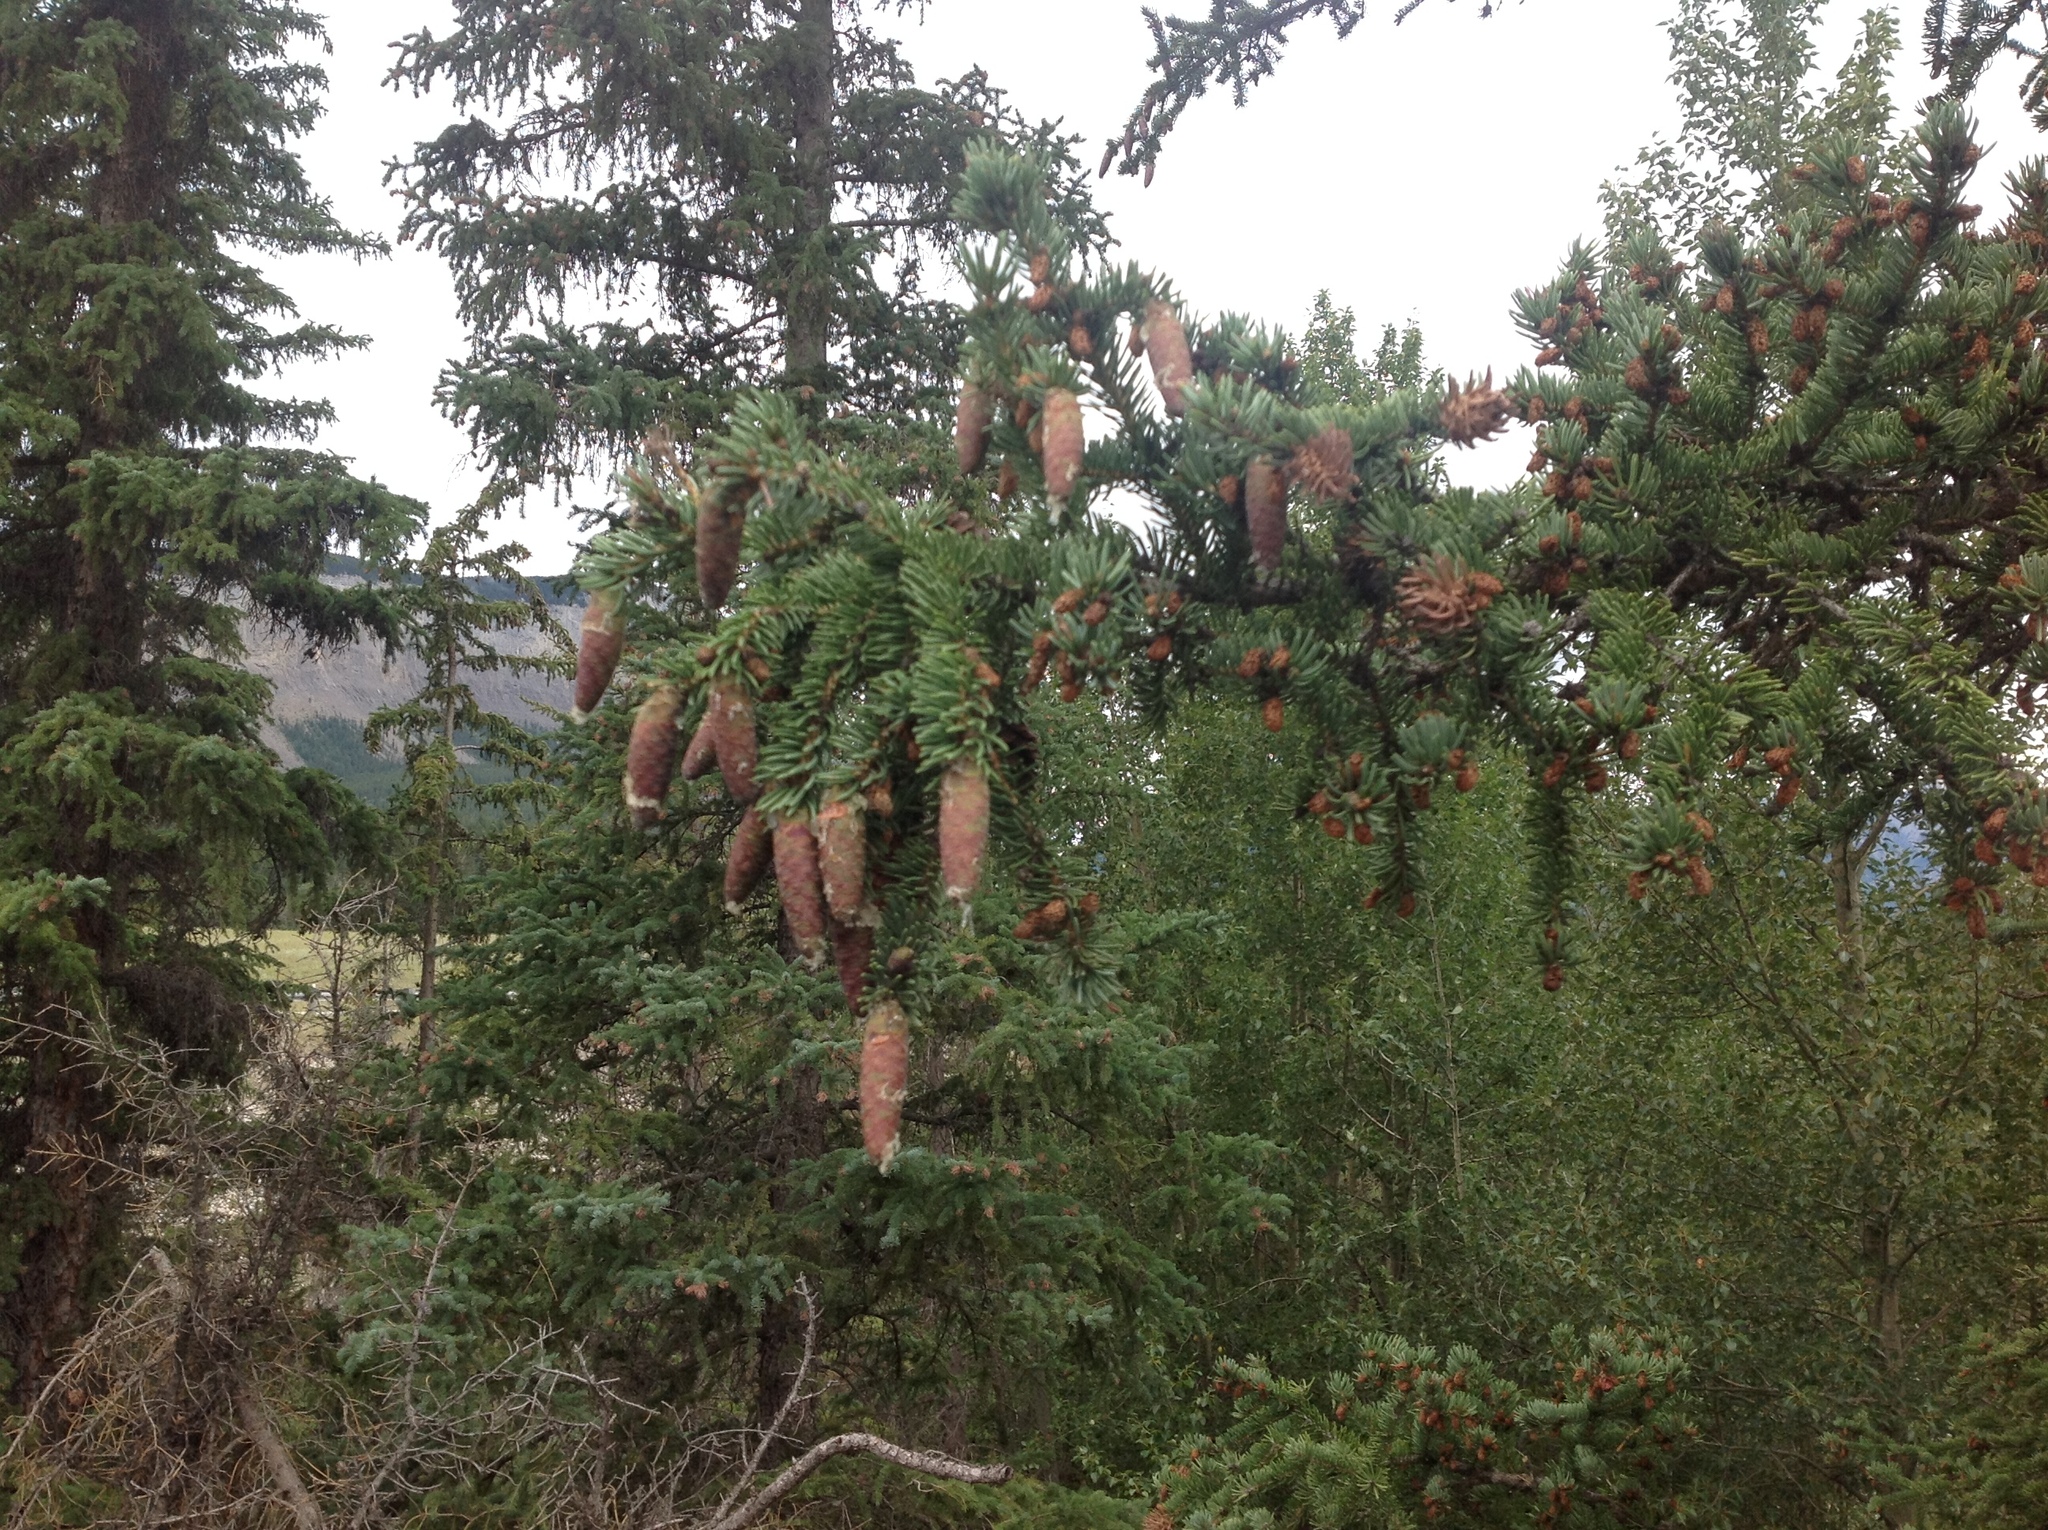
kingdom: Plantae
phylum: Tracheophyta
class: Pinopsida
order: Pinales
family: Pinaceae
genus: Picea
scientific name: Picea glauca
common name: White spruce
